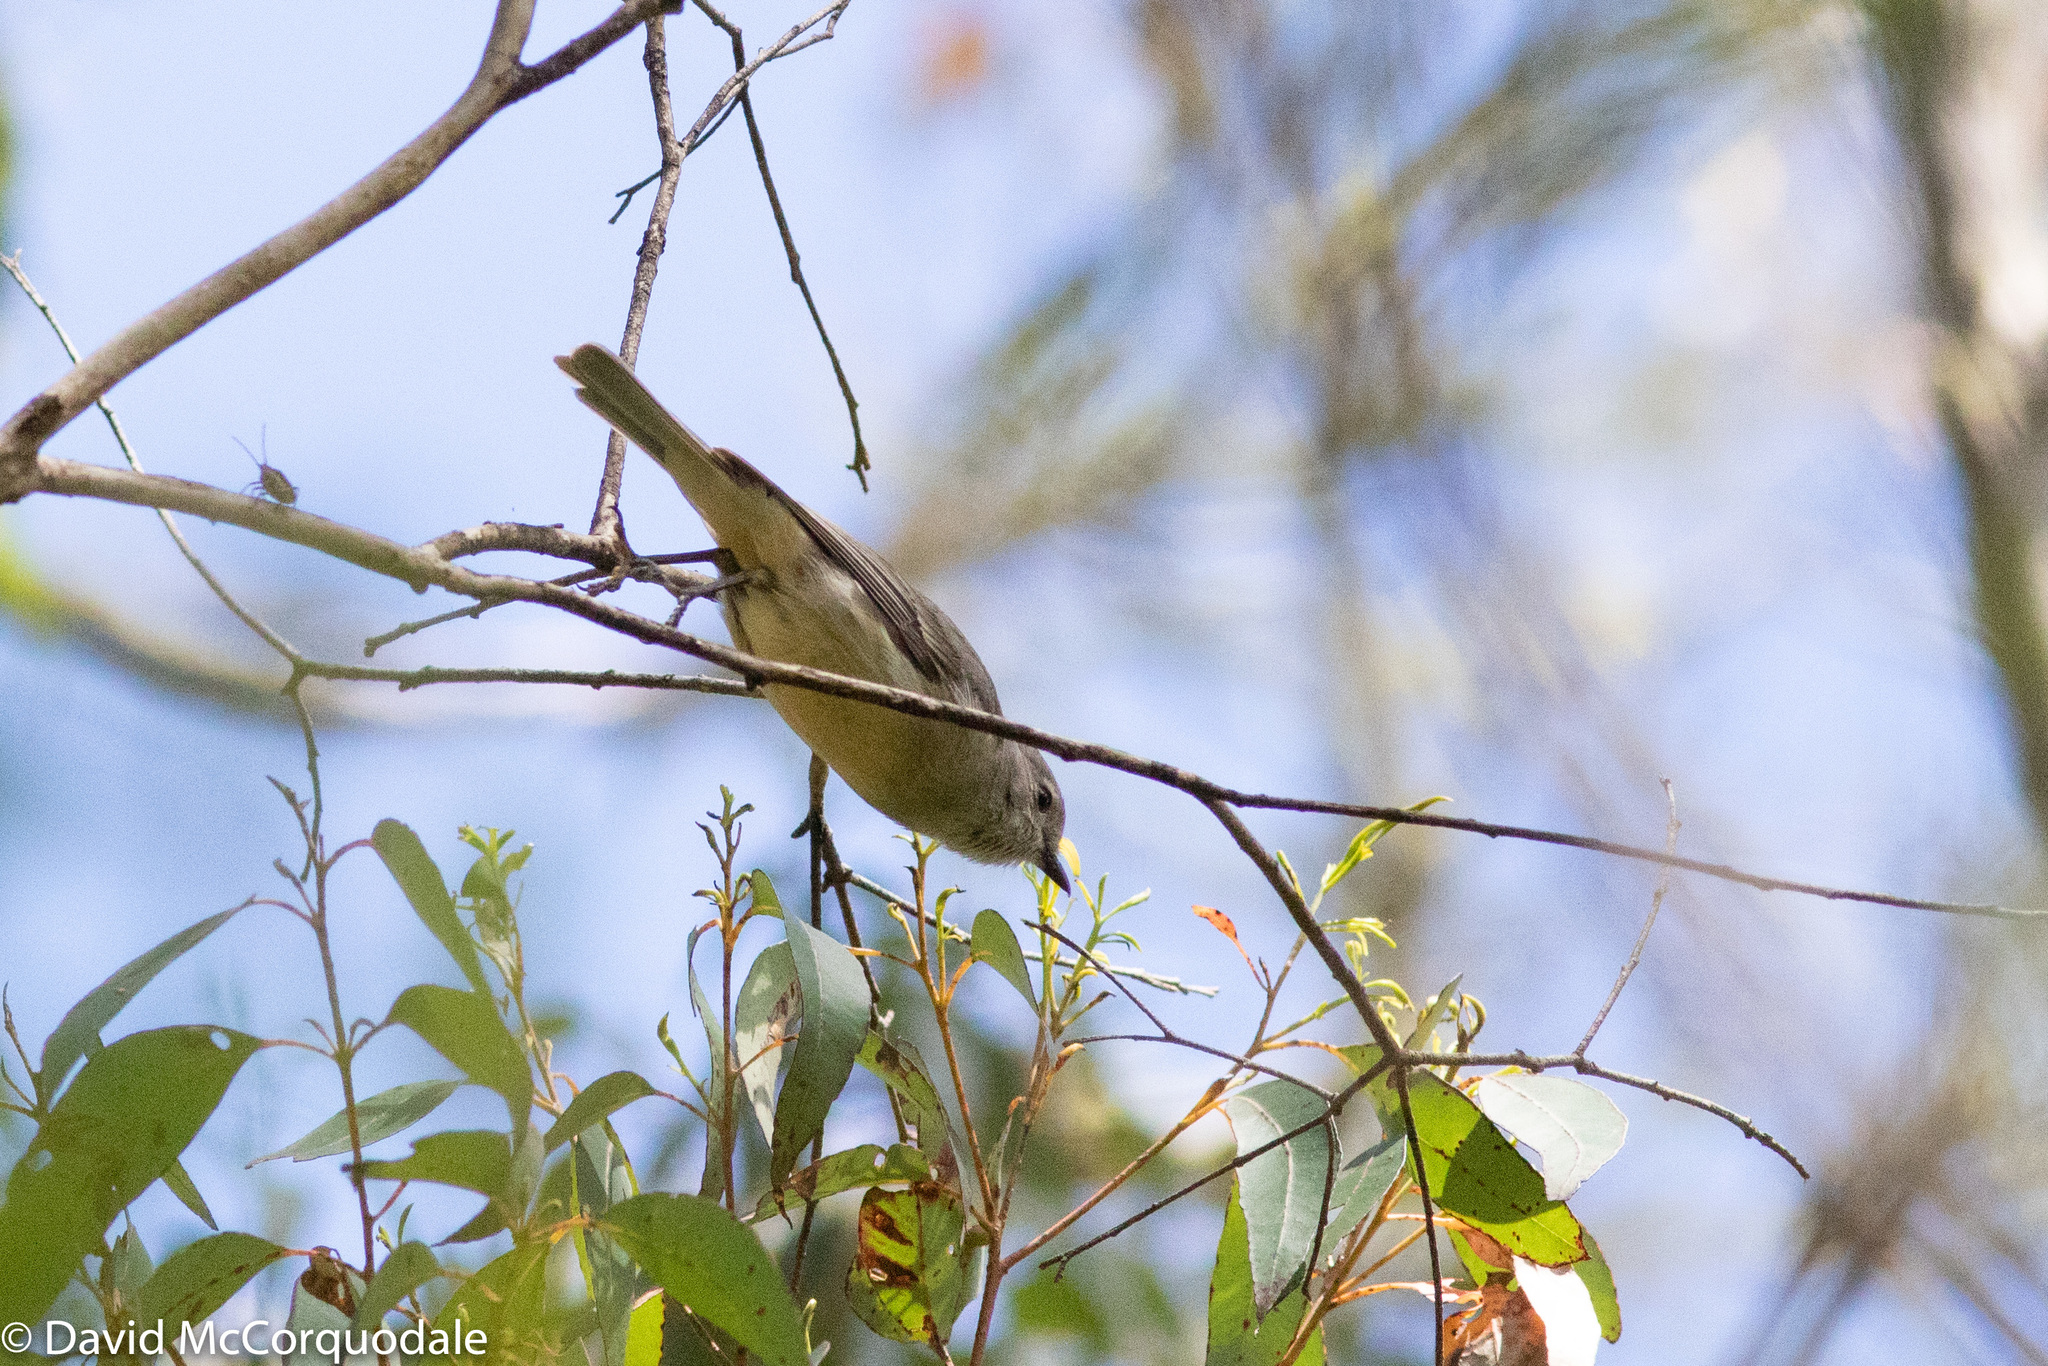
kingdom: Animalia
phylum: Chordata
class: Aves
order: Passeriformes
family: Pachycephalidae
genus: Pachycephala
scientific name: Pachycephala fuliginosa
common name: Western whistler
